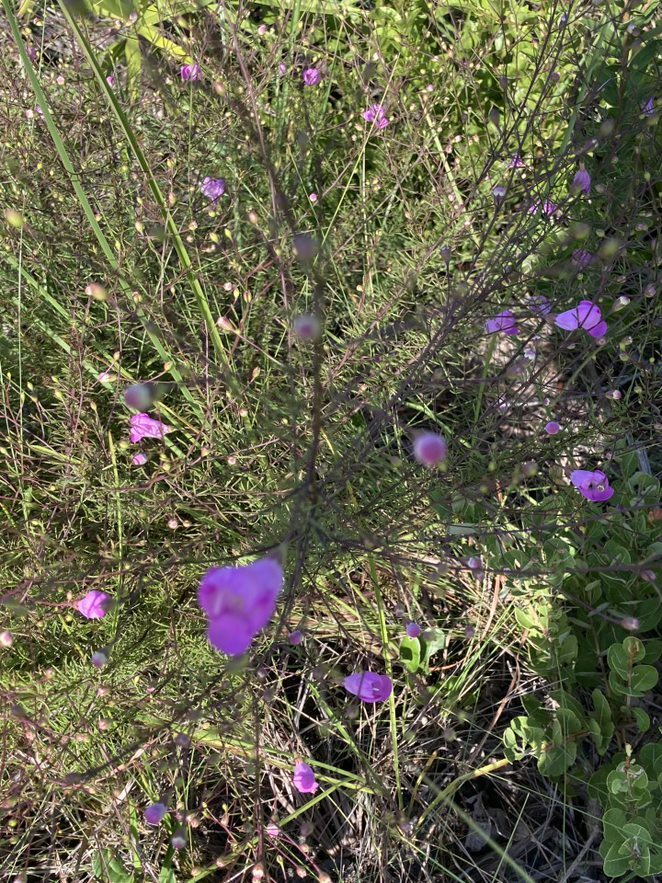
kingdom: Plantae
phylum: Tracheophyta
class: Magnoliopsida
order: Lamiales
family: Orobanchaceae
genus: Agalinis
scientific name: Agalinis filifolia
